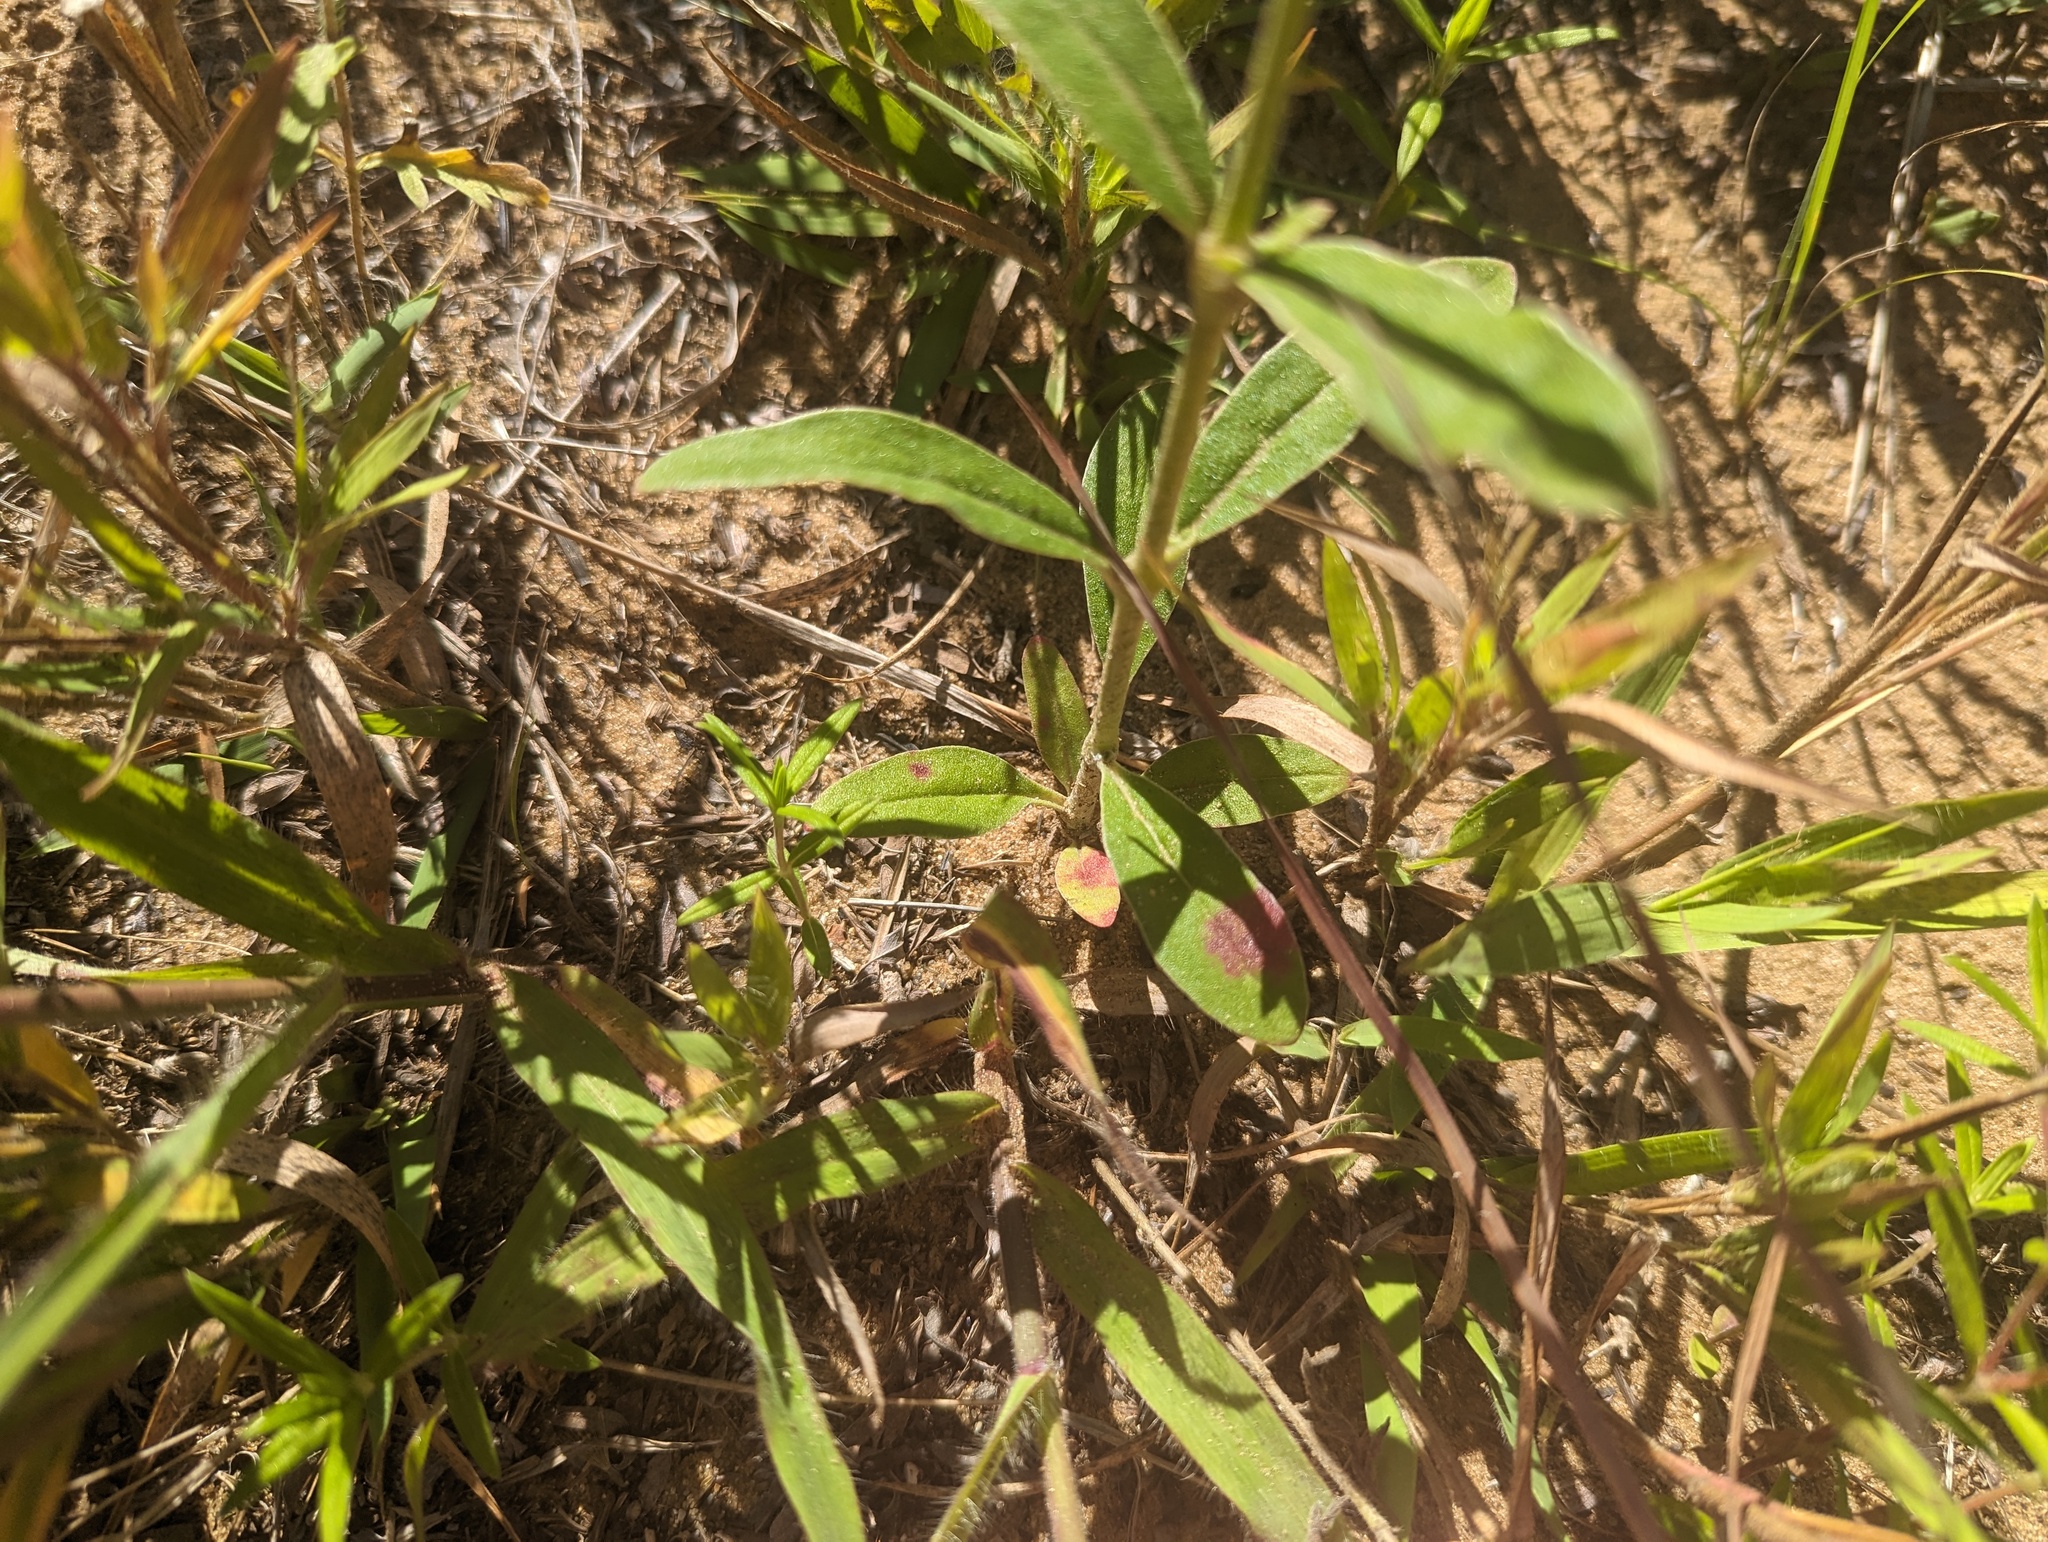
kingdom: Plantae
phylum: Tracheophyta
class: Magnoliopsida
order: Caryophyllales
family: Amaranthaceae
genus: Froelichia
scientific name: Froelichia floridana
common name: Florida snake-cotton
